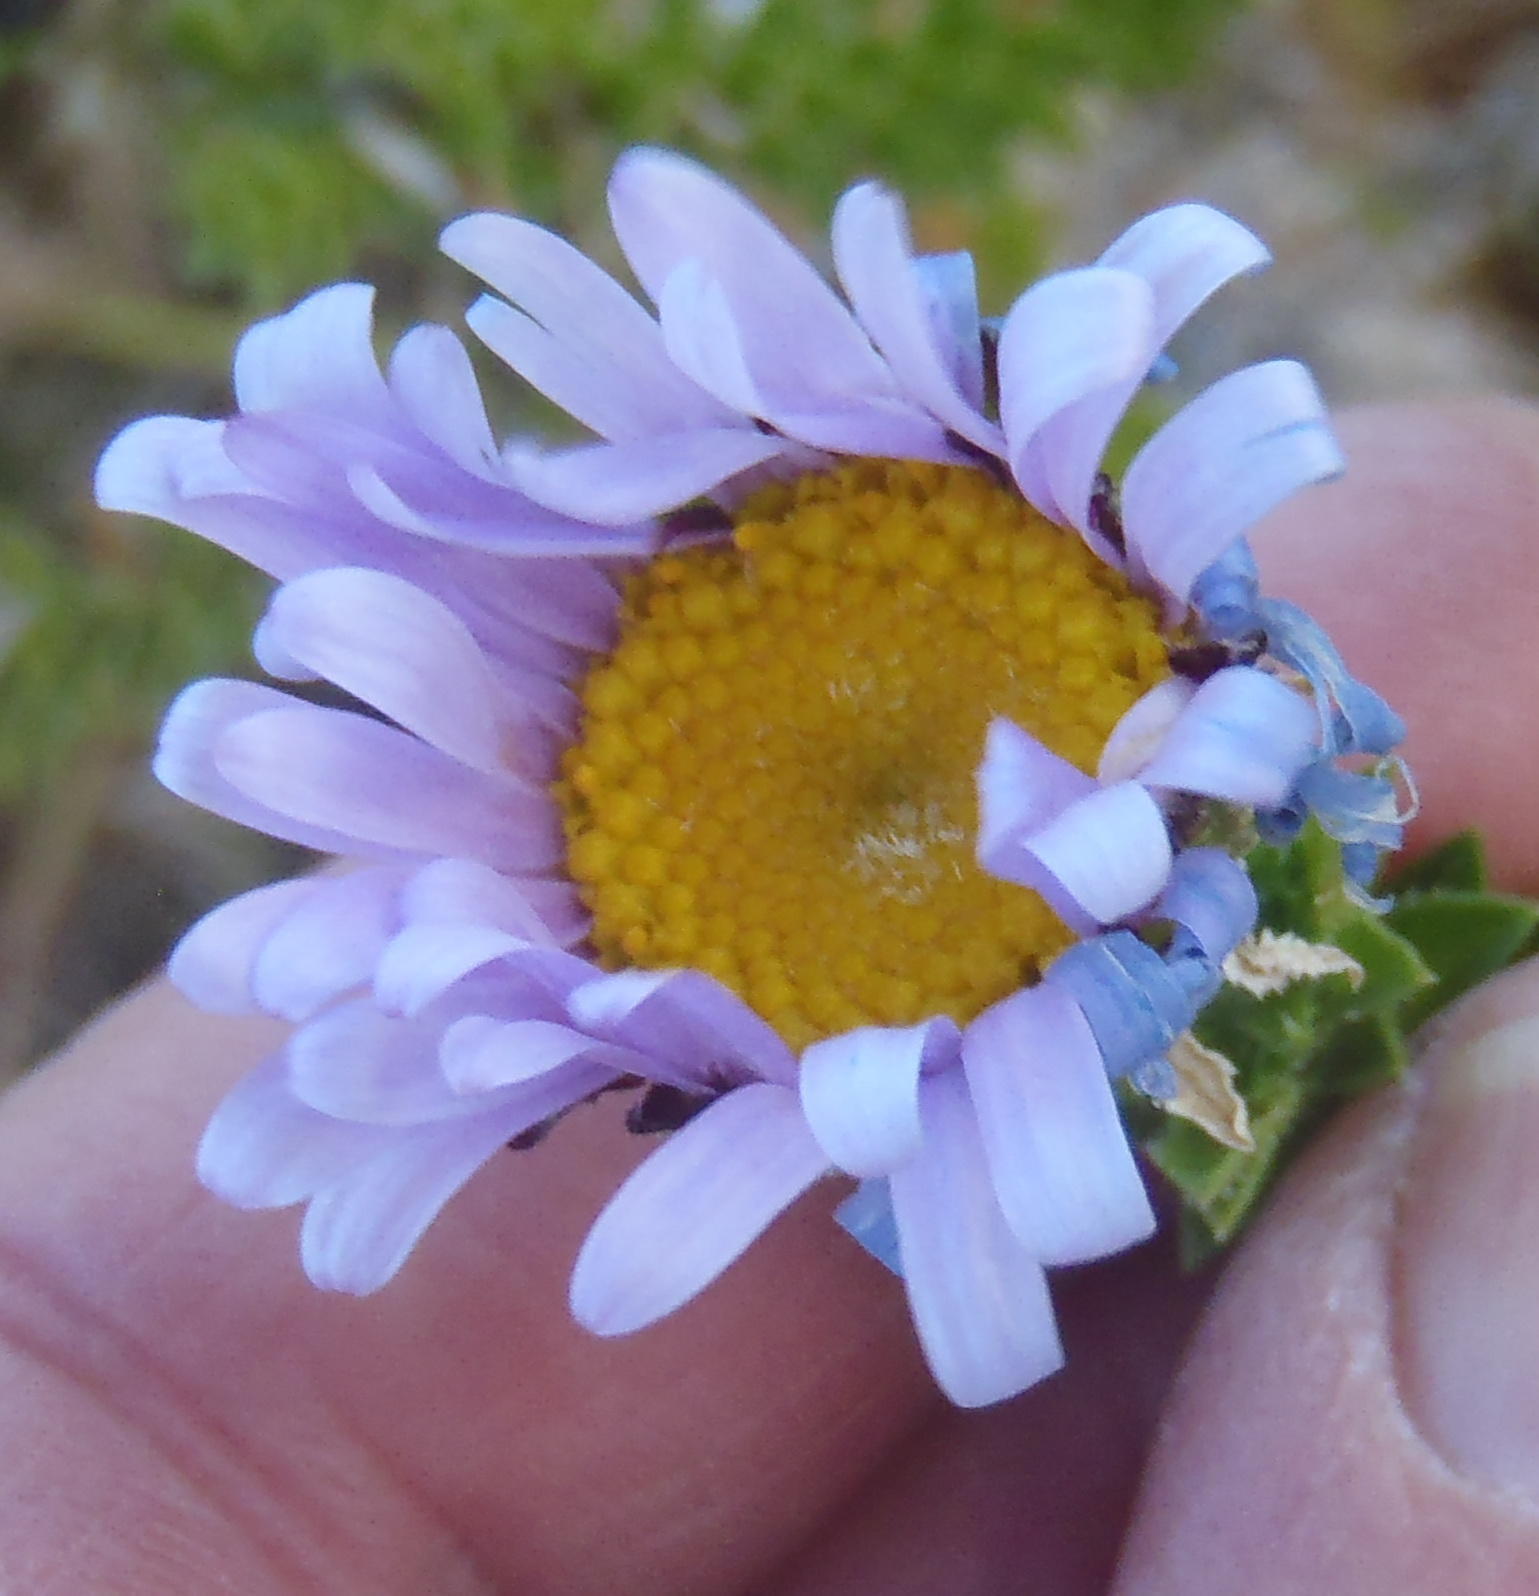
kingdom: Plantae
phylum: Tracheophyta
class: Magnoliopsida
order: Asterales
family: Asteraceae
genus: Felicia
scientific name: Felicia echinata
